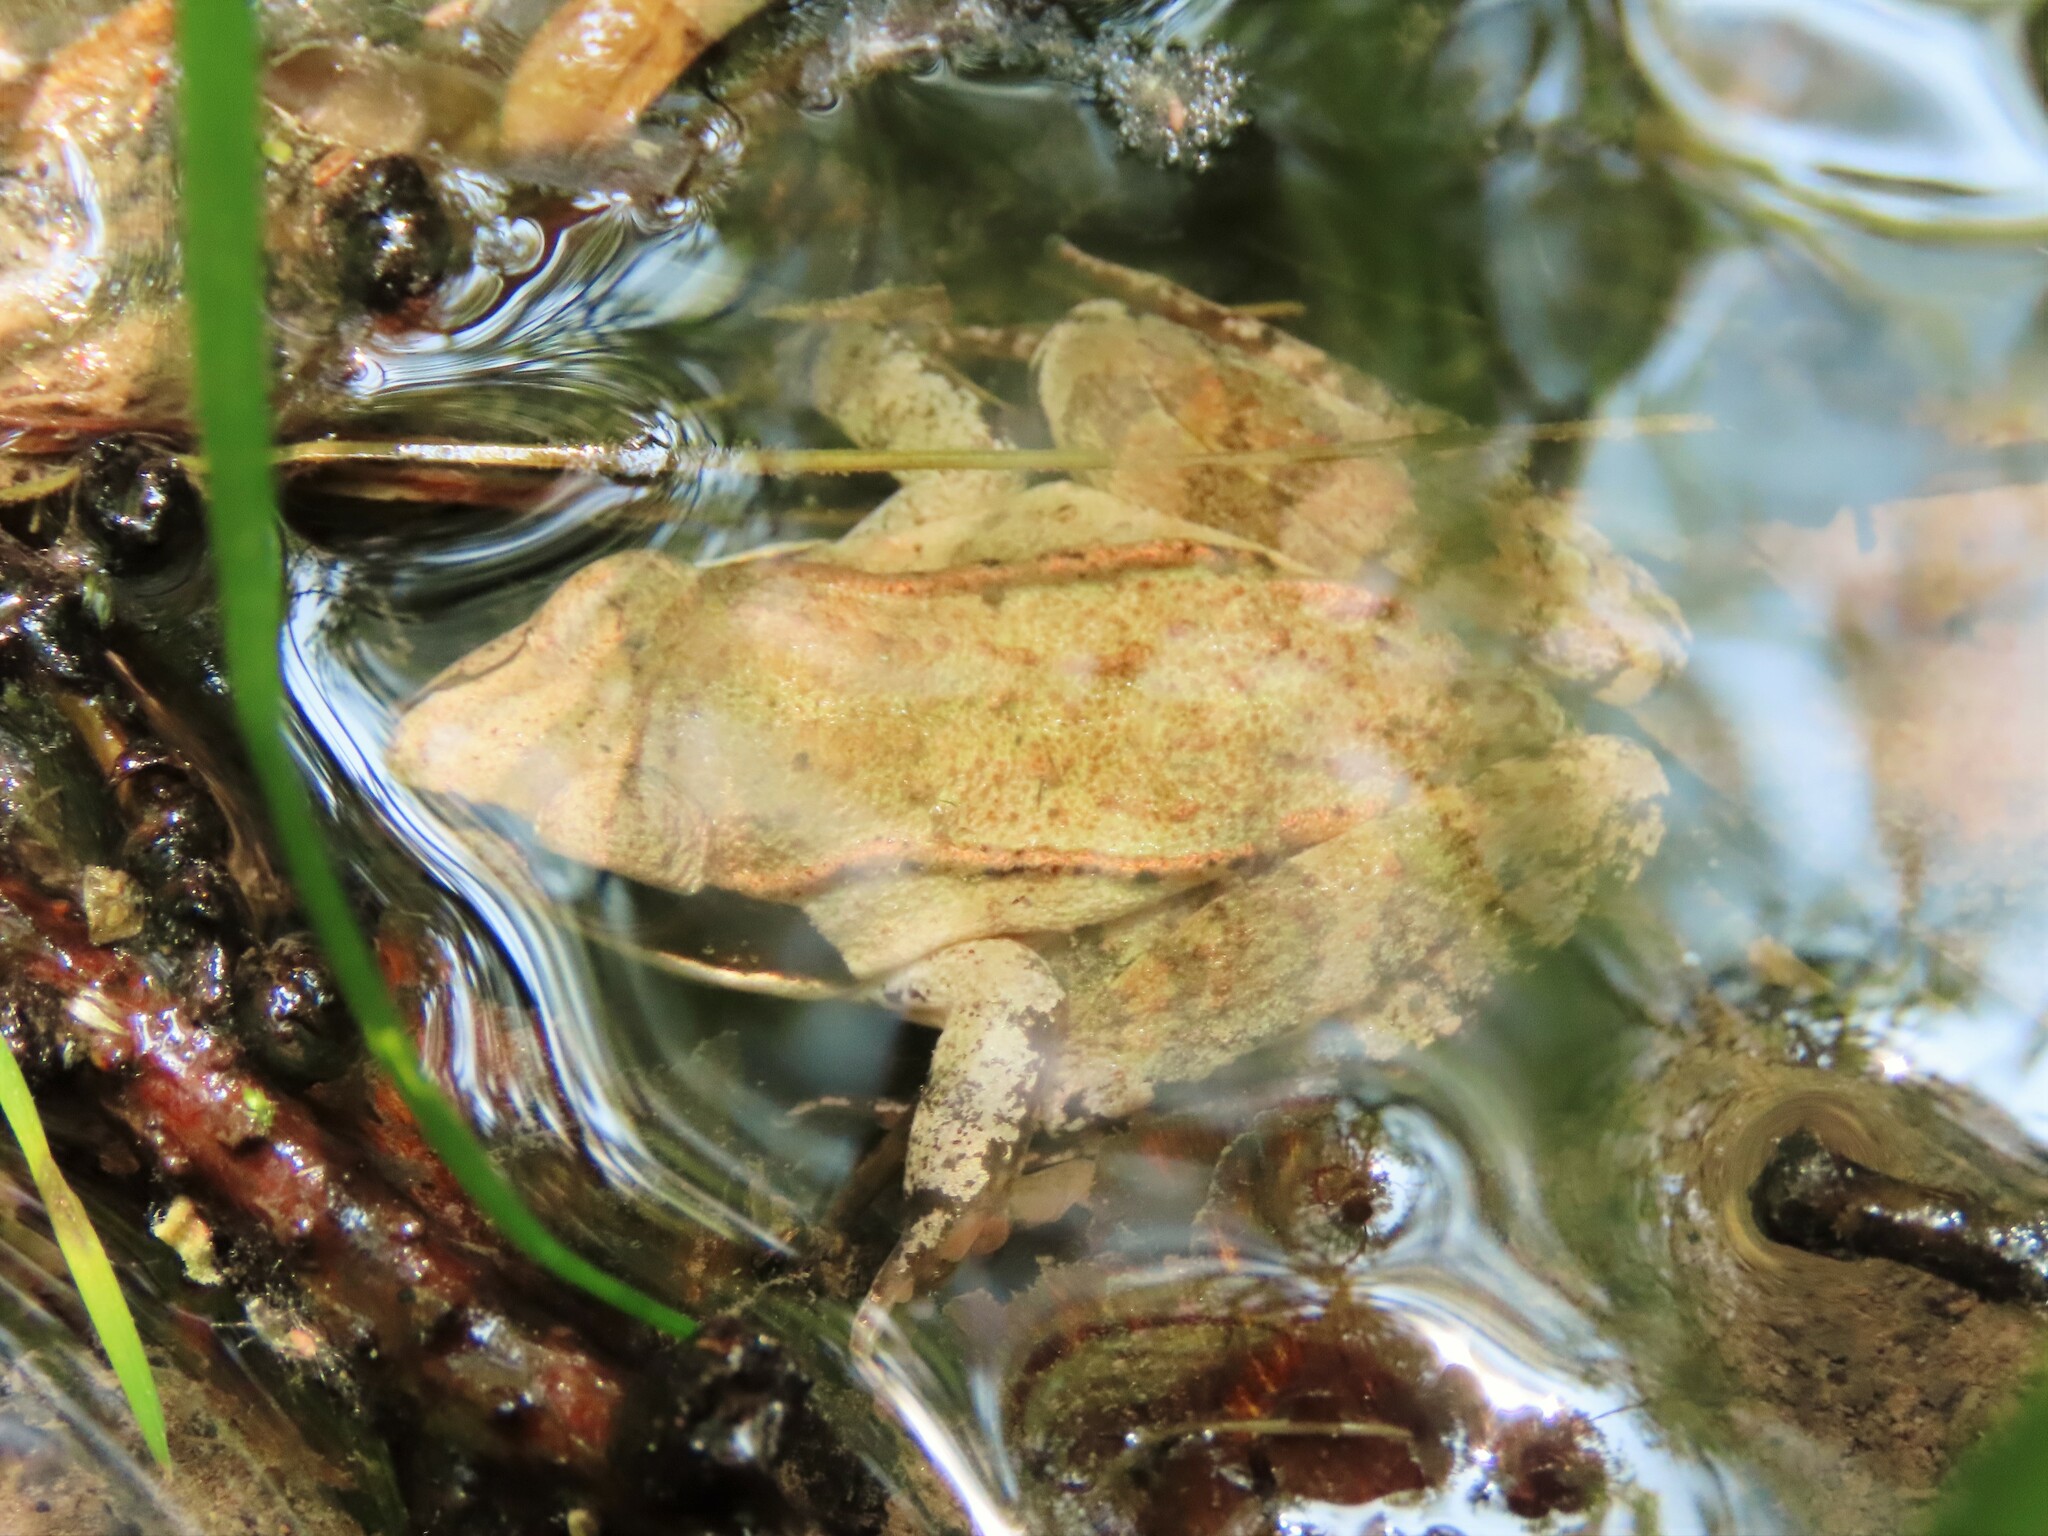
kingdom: Animalia
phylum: Chordata
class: Amphibia
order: Anura
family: Ranidae
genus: Lithobates
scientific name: Lithobates sylvaticus
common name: Wood frog
